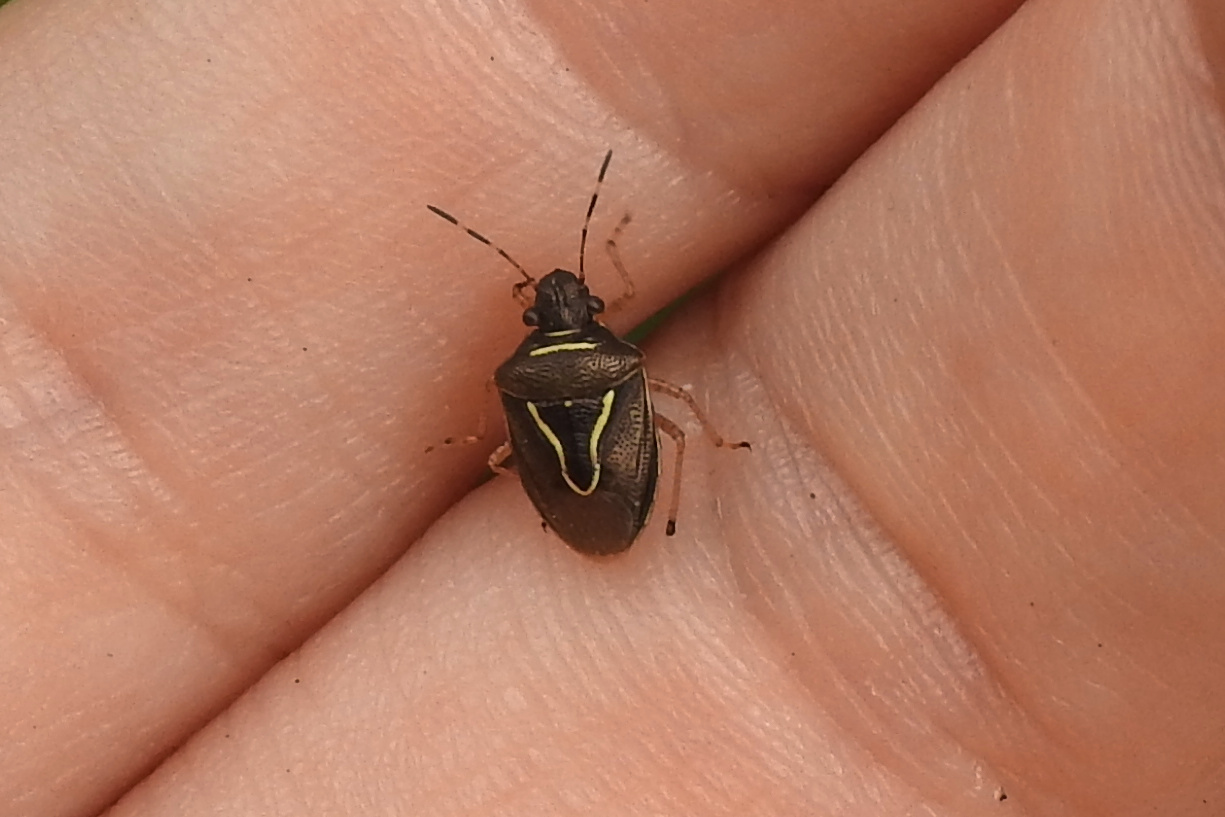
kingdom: Animalia
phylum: Arthropoda
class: Insecta
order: Hemiptera
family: Pentatomidae
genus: Mormidea
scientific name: Mormidea lugens
